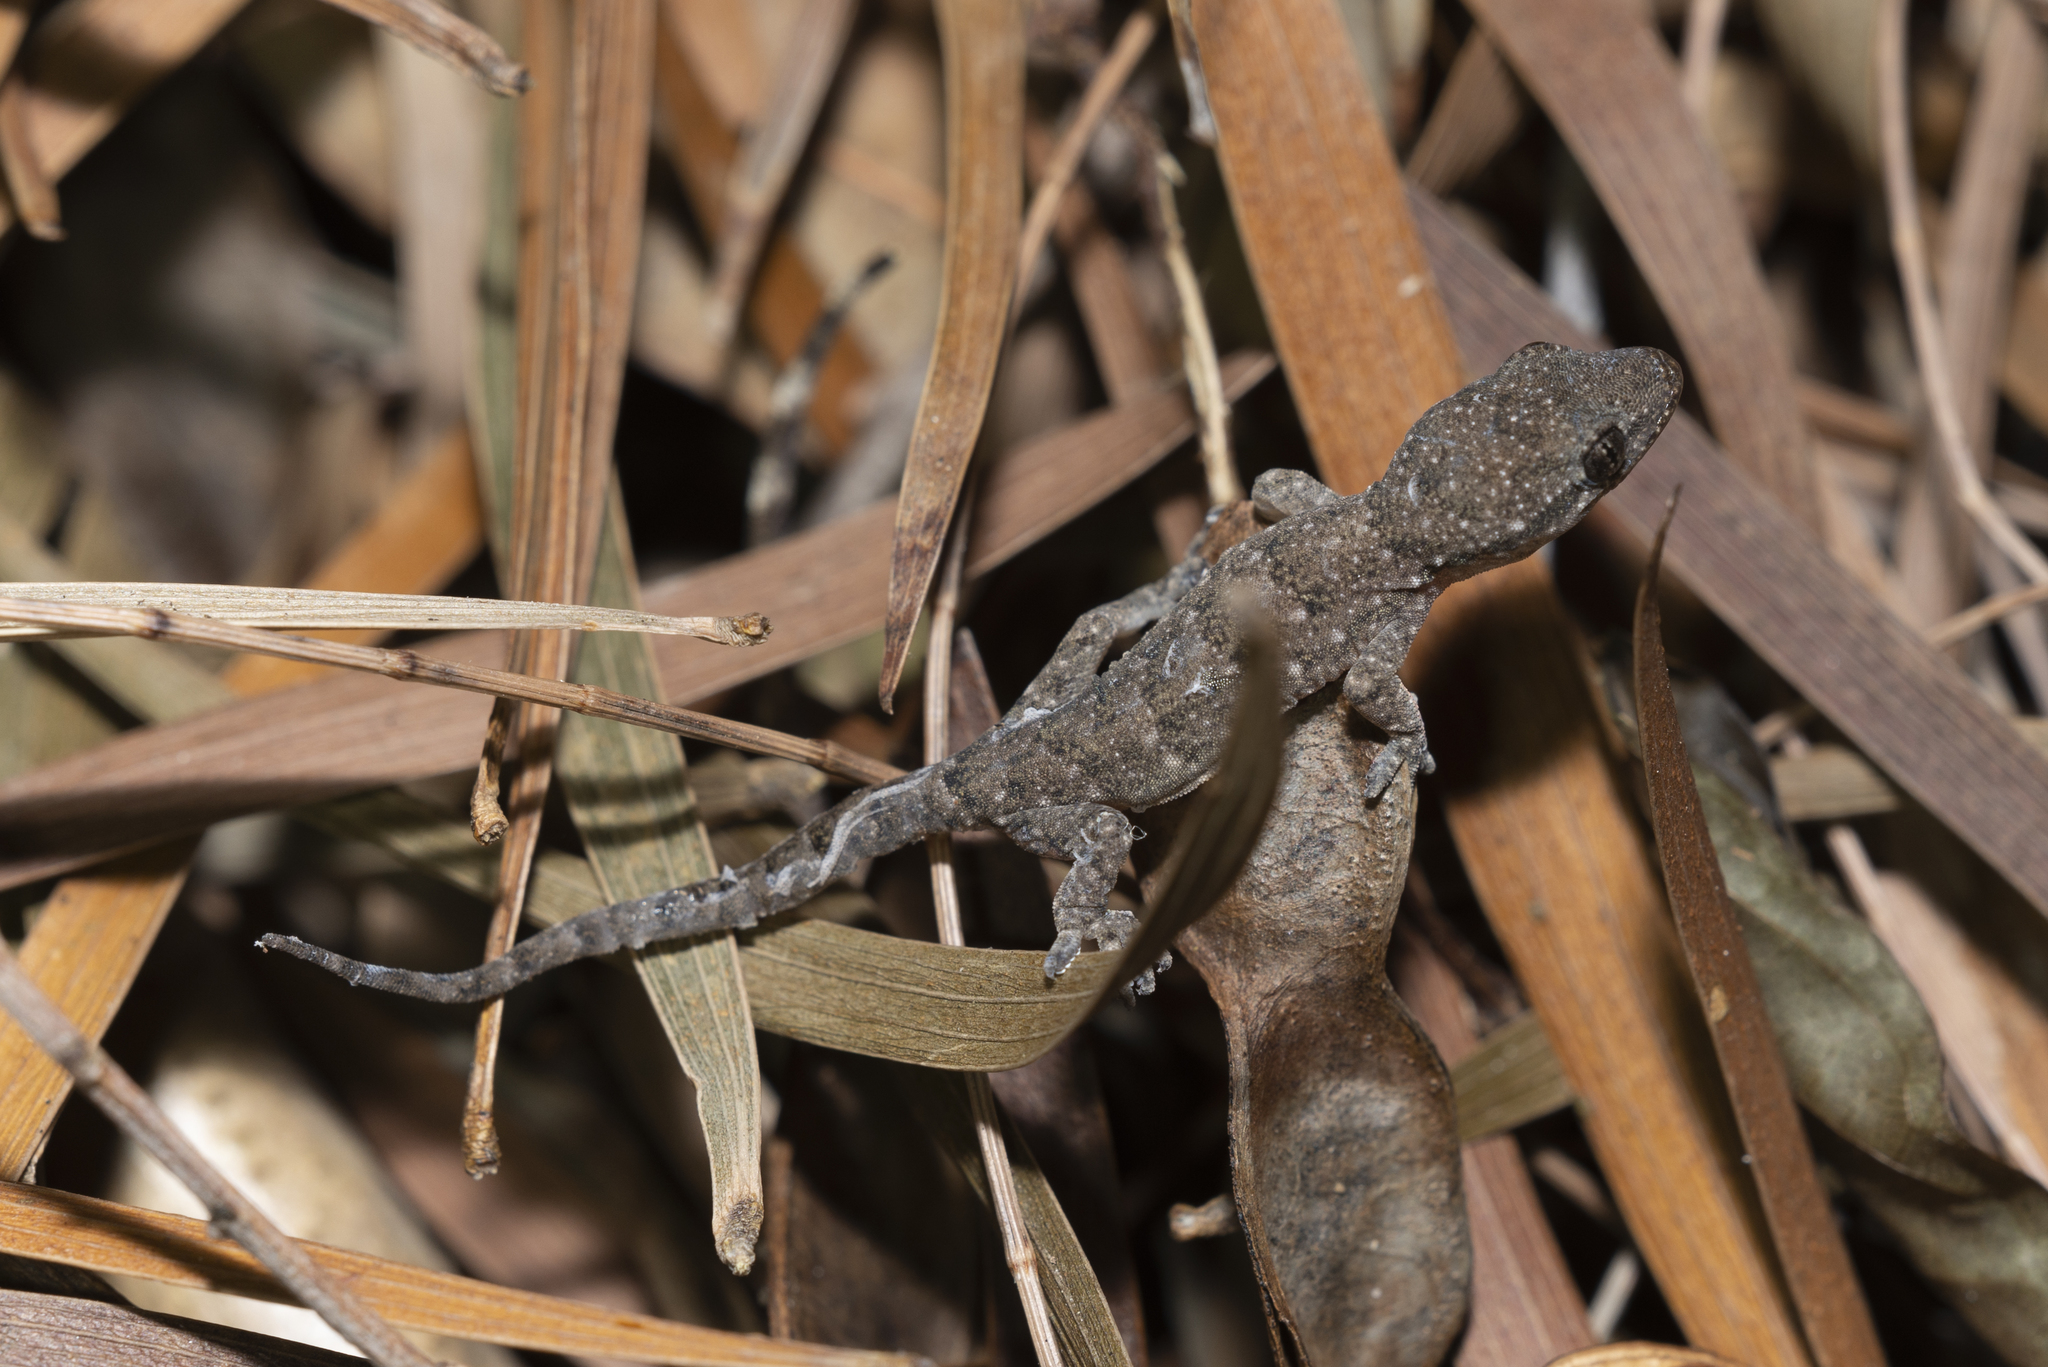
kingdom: Animalia
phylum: Chordata
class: Squamata
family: Gekkonidae
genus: Hemidactylus
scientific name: Hemidactylus bowringii
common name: Oriental leaf-toed gecko
